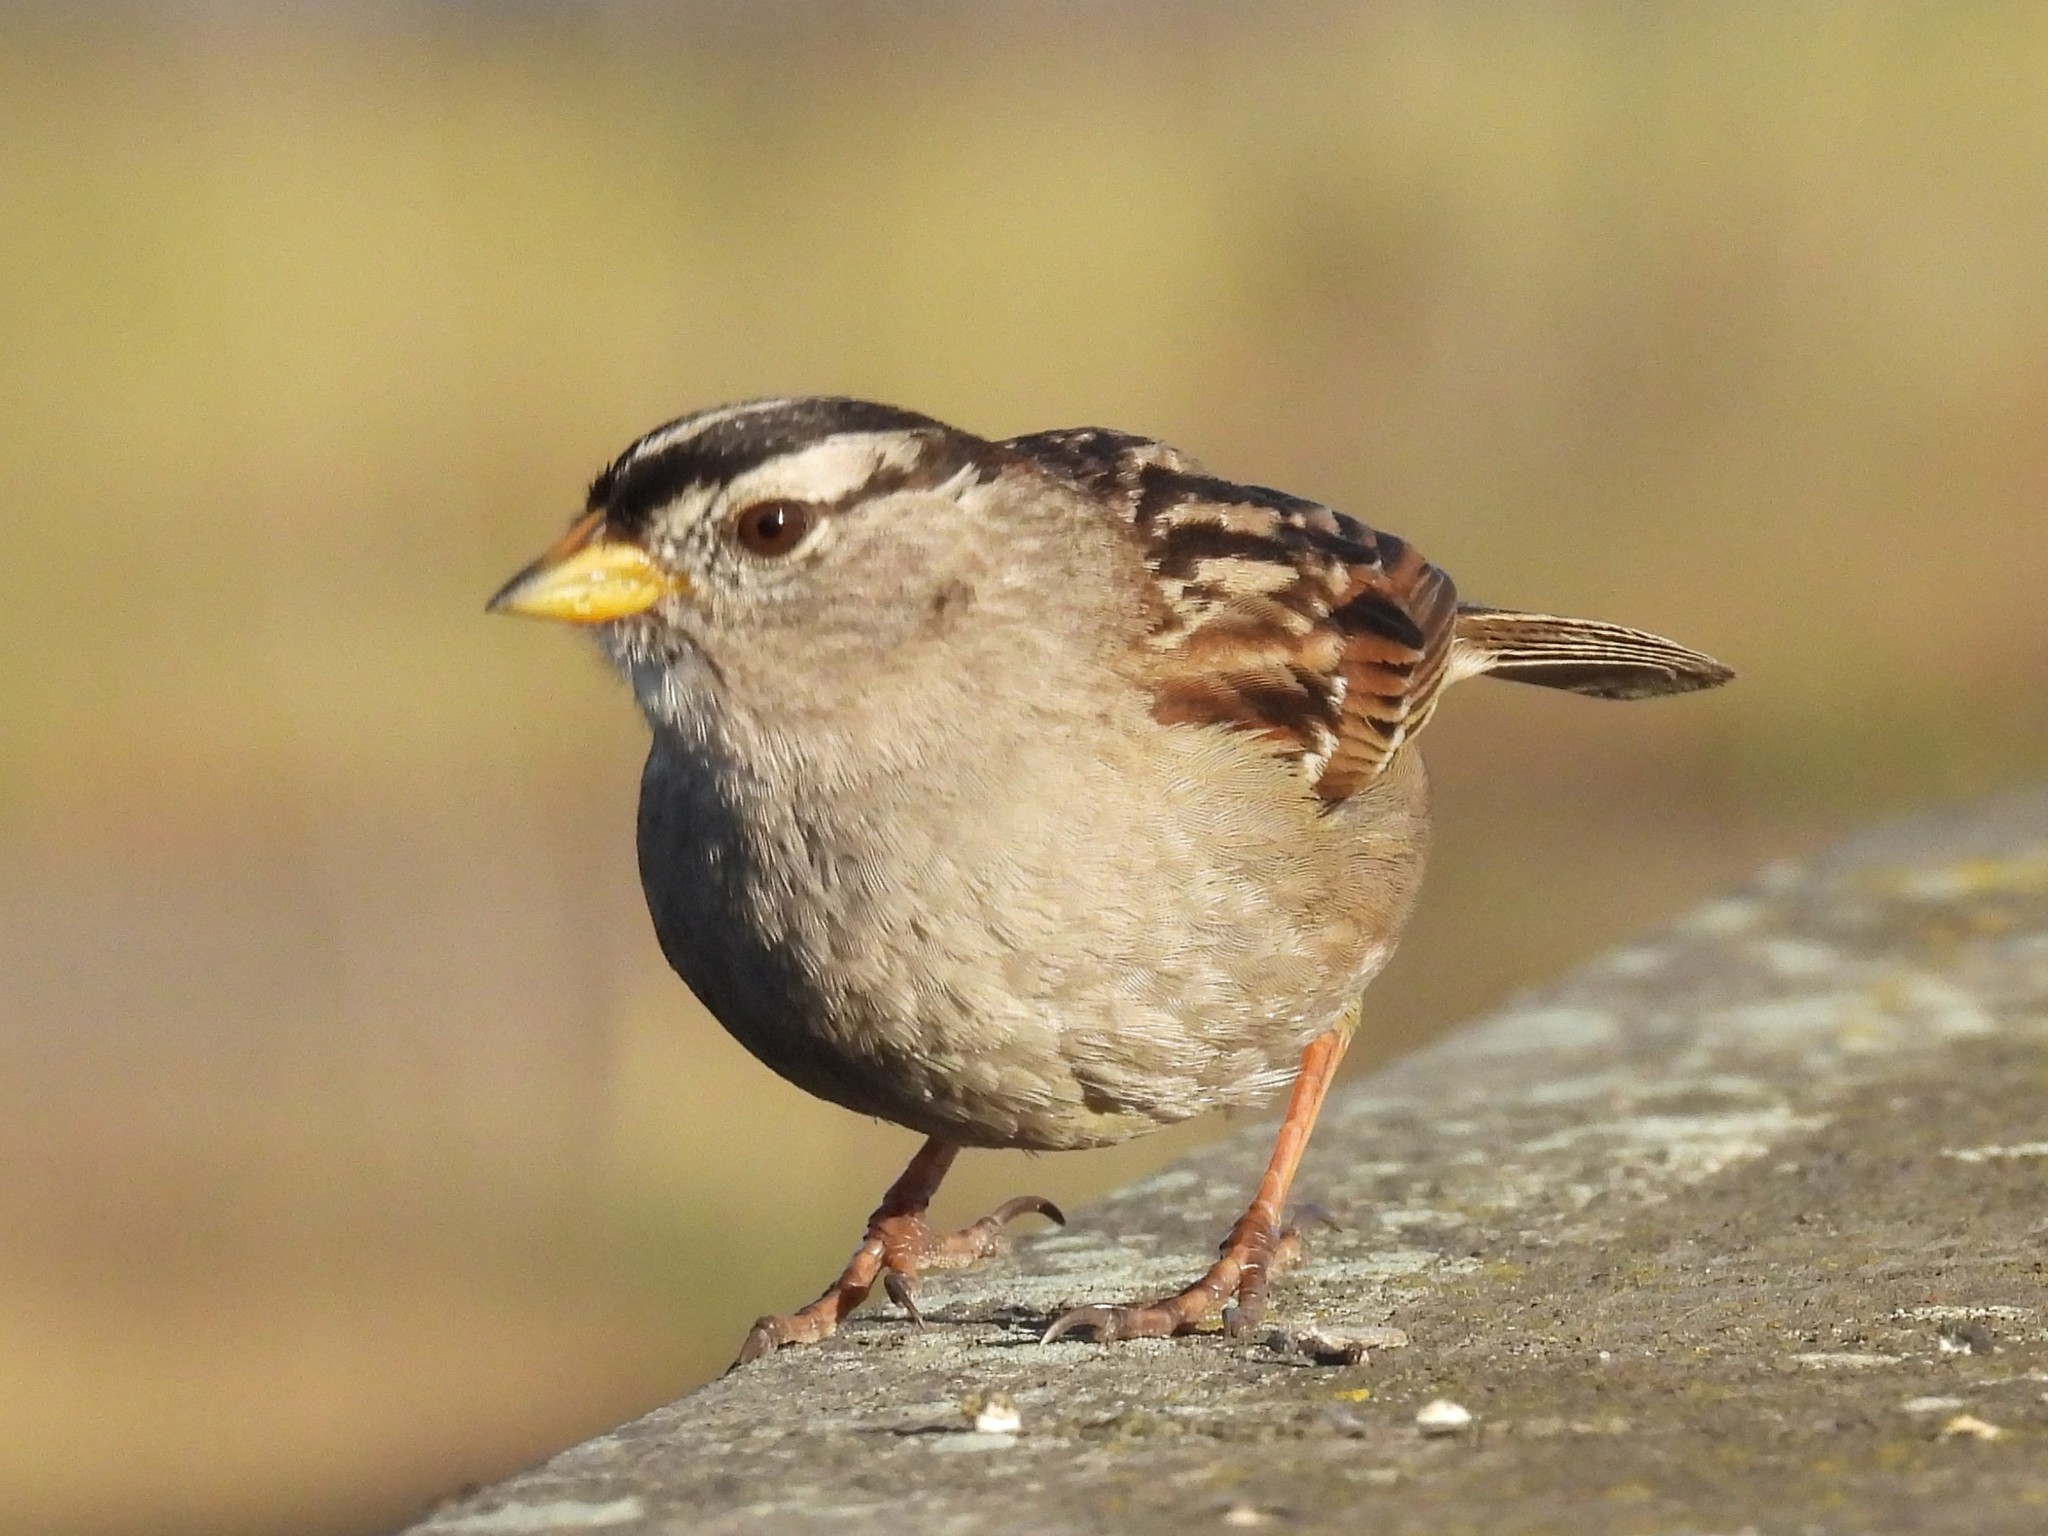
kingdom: Animalia
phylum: Chordata
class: Aves
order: Passeriformes
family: Passerellidae
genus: Zonotrichia
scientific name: Zonotrichia leucophrys
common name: White-crowned sparrow
